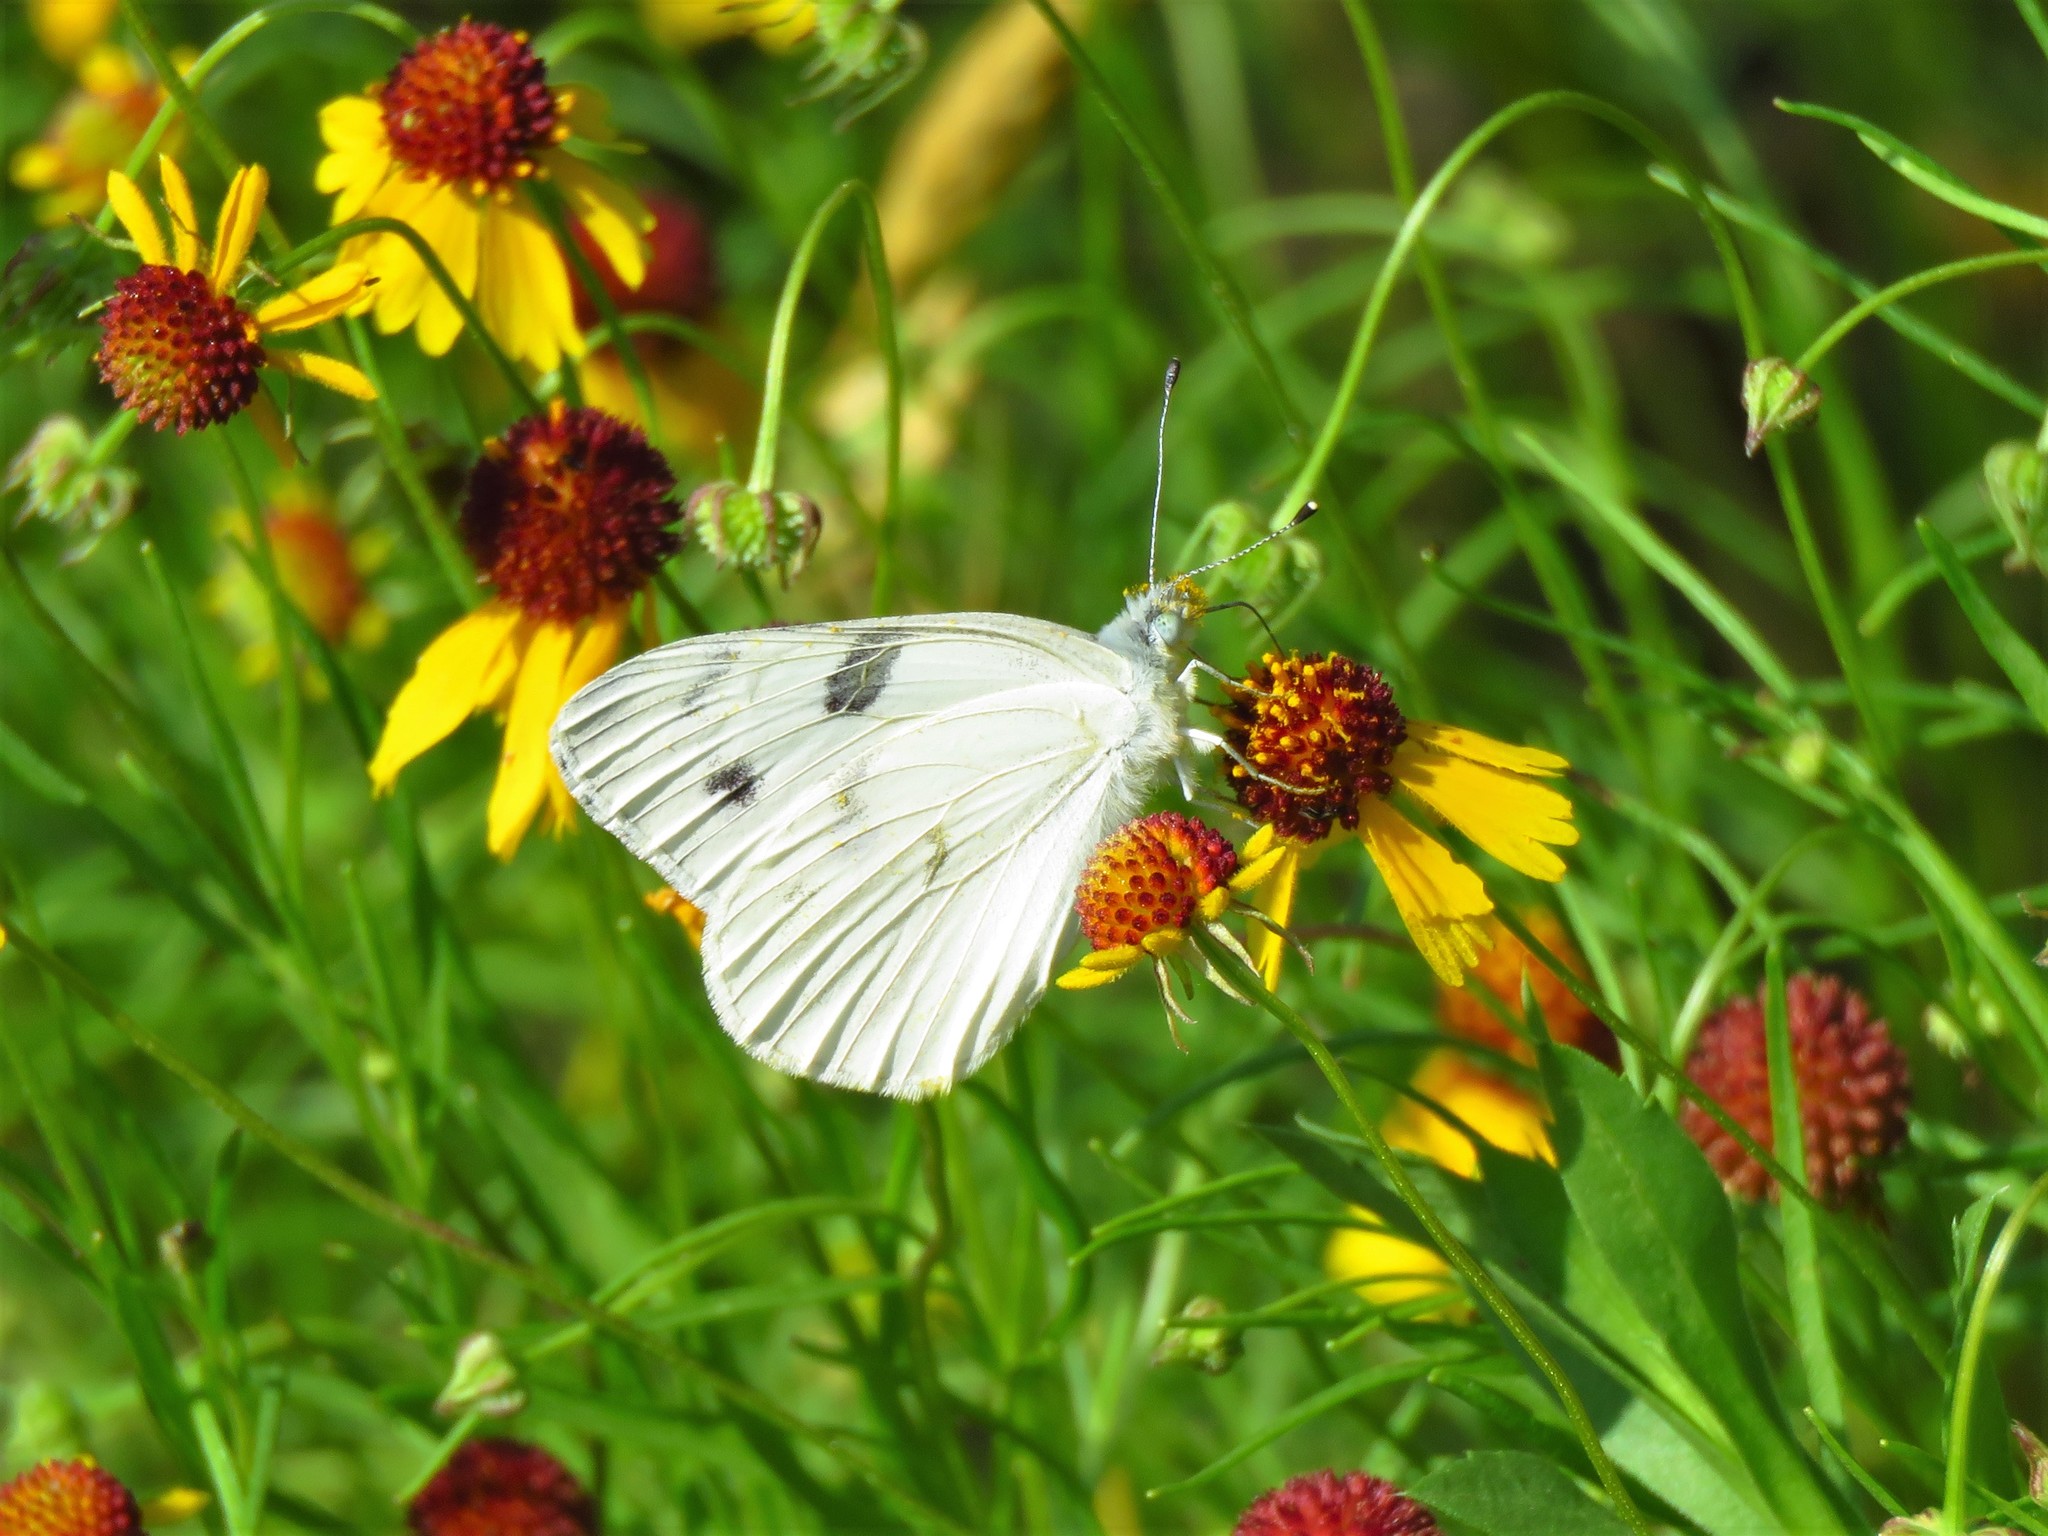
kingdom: Animalia
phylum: Arthropoda
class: Insecta
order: Lepidoptera
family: Pieridae
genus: Pontia
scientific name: Pontia protodice
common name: Checkered white
